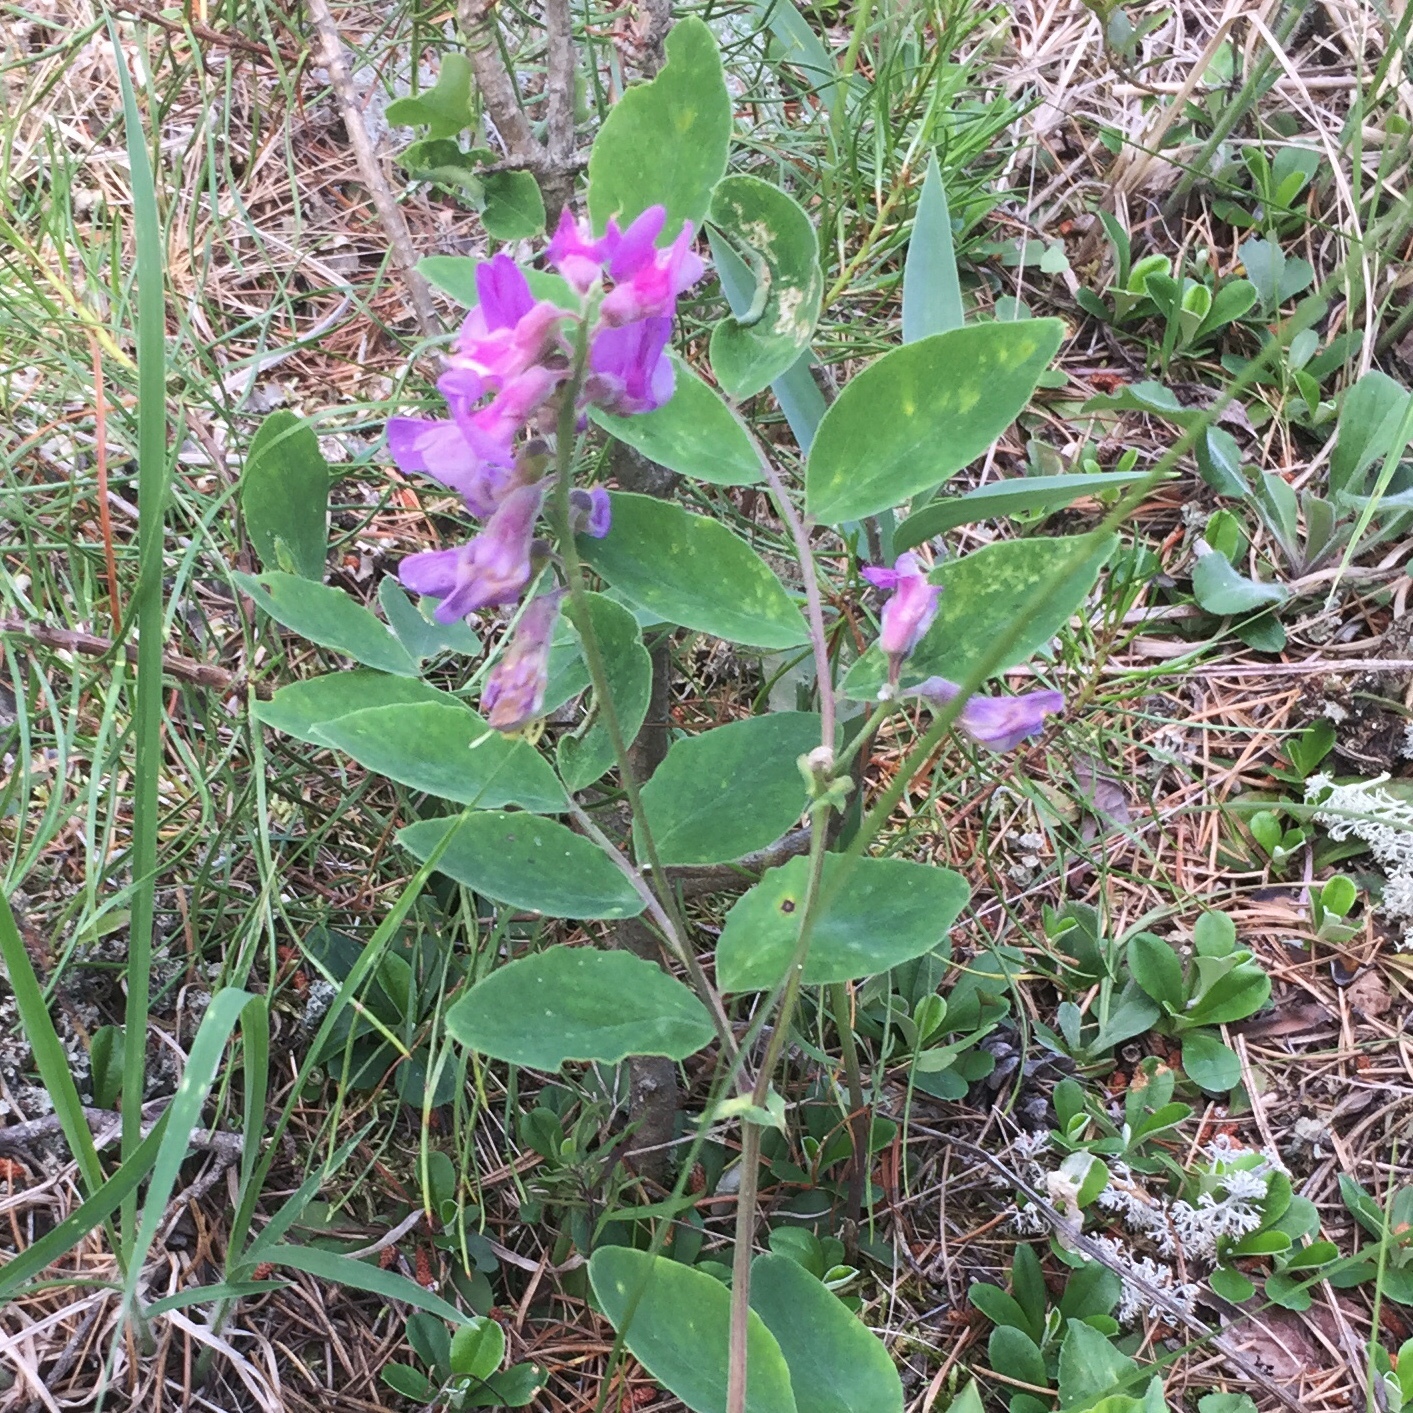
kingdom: Plantae
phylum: Tracheophyta
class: Magnoliopsida
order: Fabales
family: Fabaceae
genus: Lathyrus
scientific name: Lathyrus venosus
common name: Forest-pea
